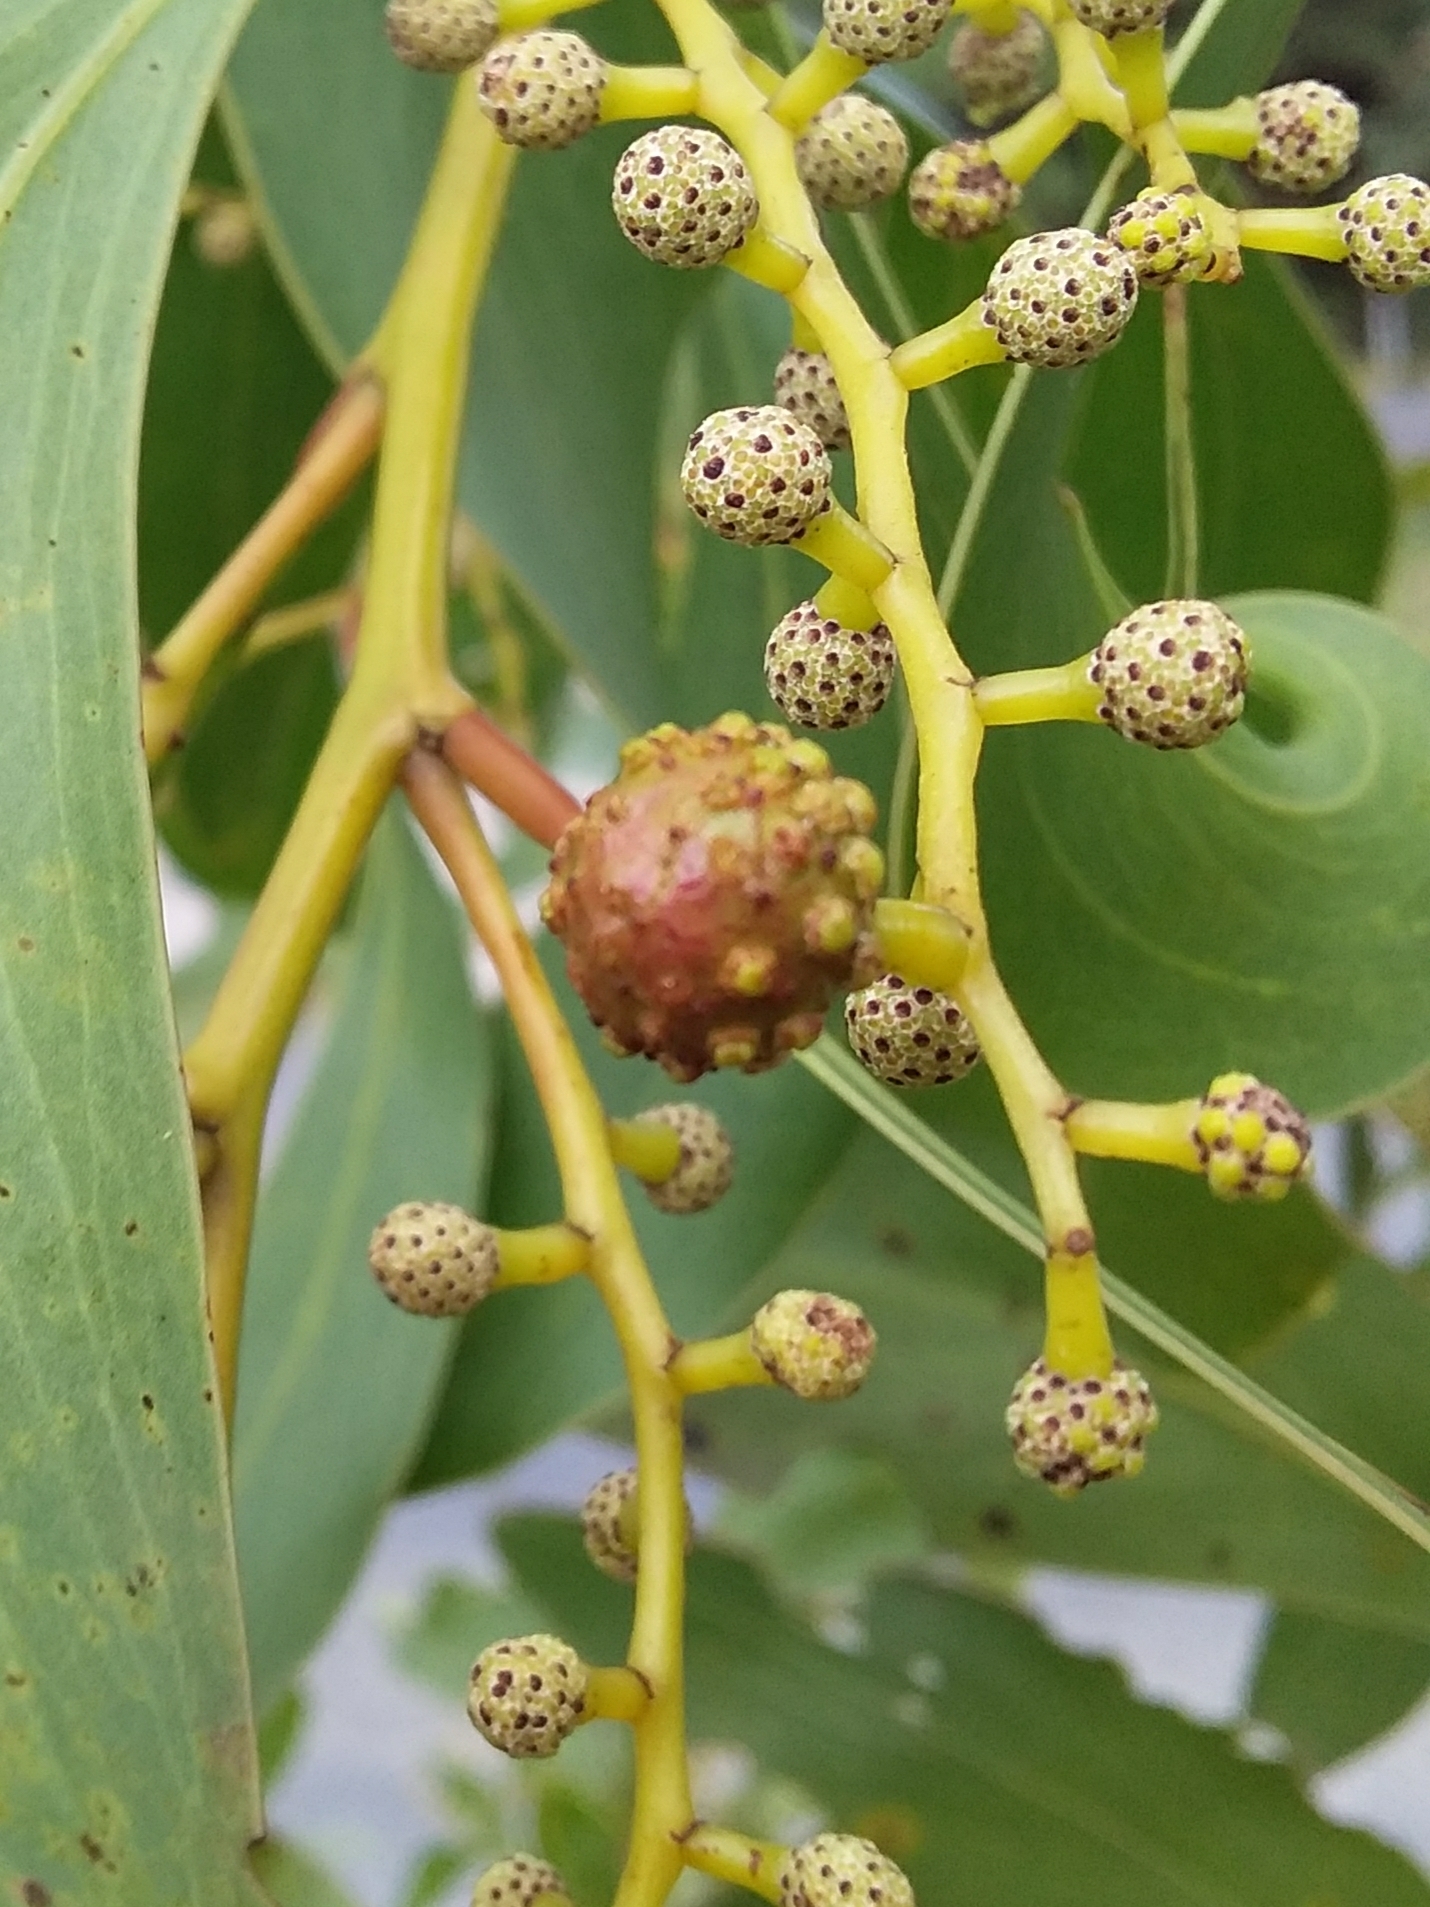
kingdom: Animalia
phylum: Arthropoda
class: Insecta
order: Hymenoptera
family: Pteromalidae
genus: Trichilogaster
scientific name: Trichilogaster signiventris
